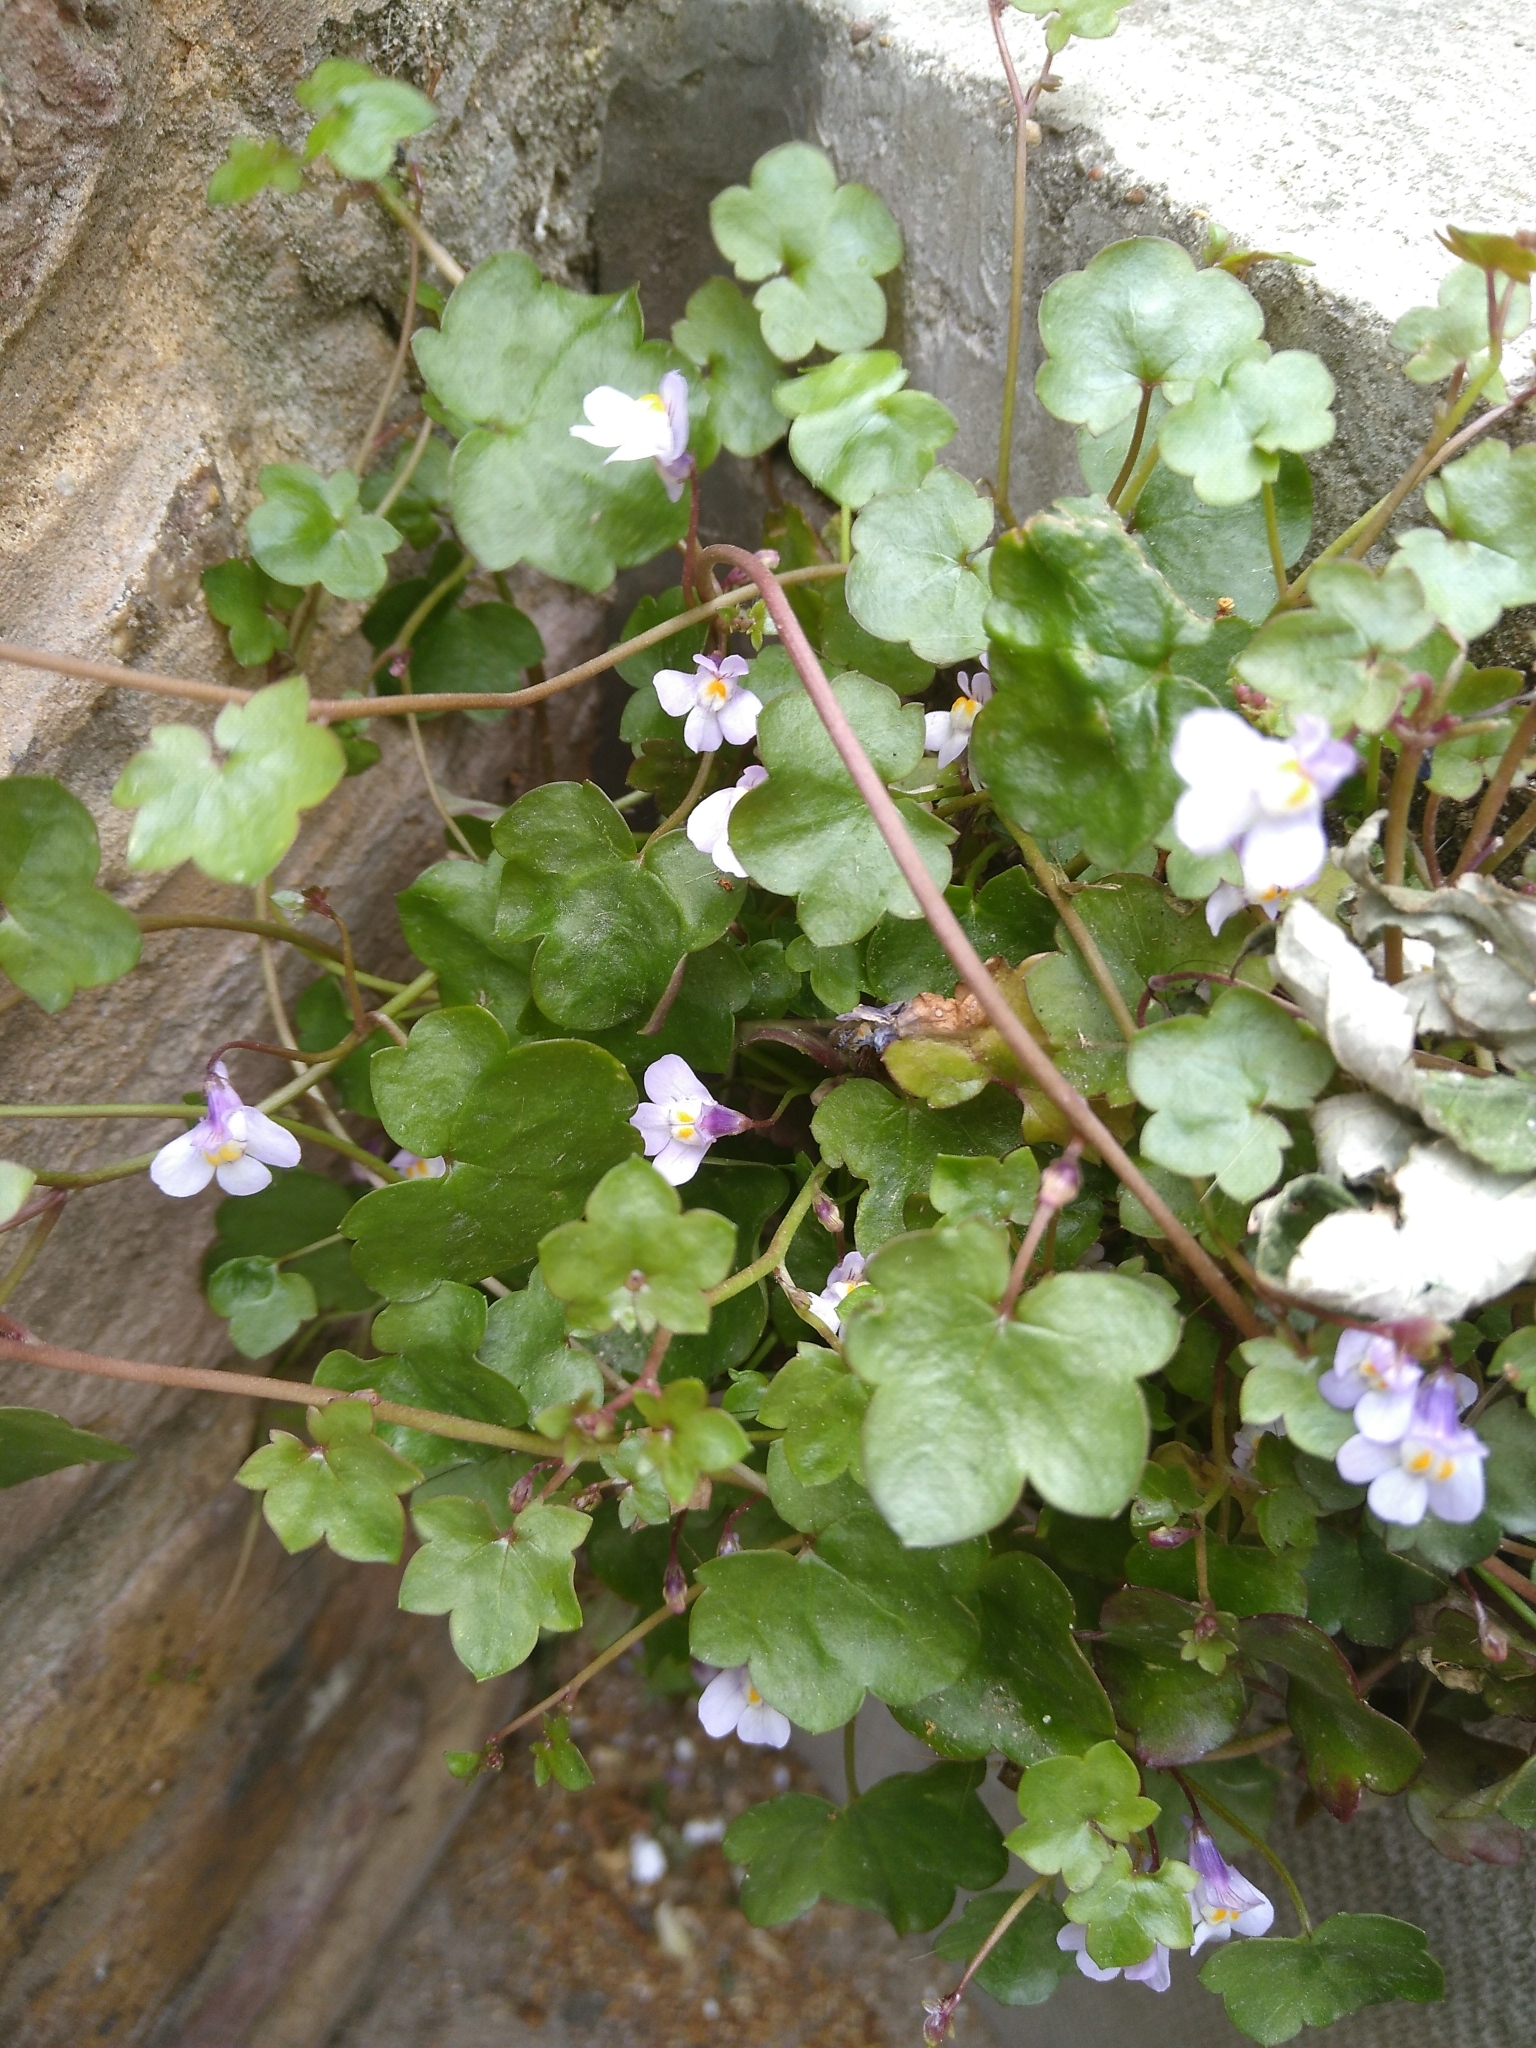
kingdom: Plantae
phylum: Tracheophyta
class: Magnoliopsida
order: Lamiales
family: Plantaginaceae
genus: Cymbalaria
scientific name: Cymbalaria muralis
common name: Ivy-leaved toadflax
